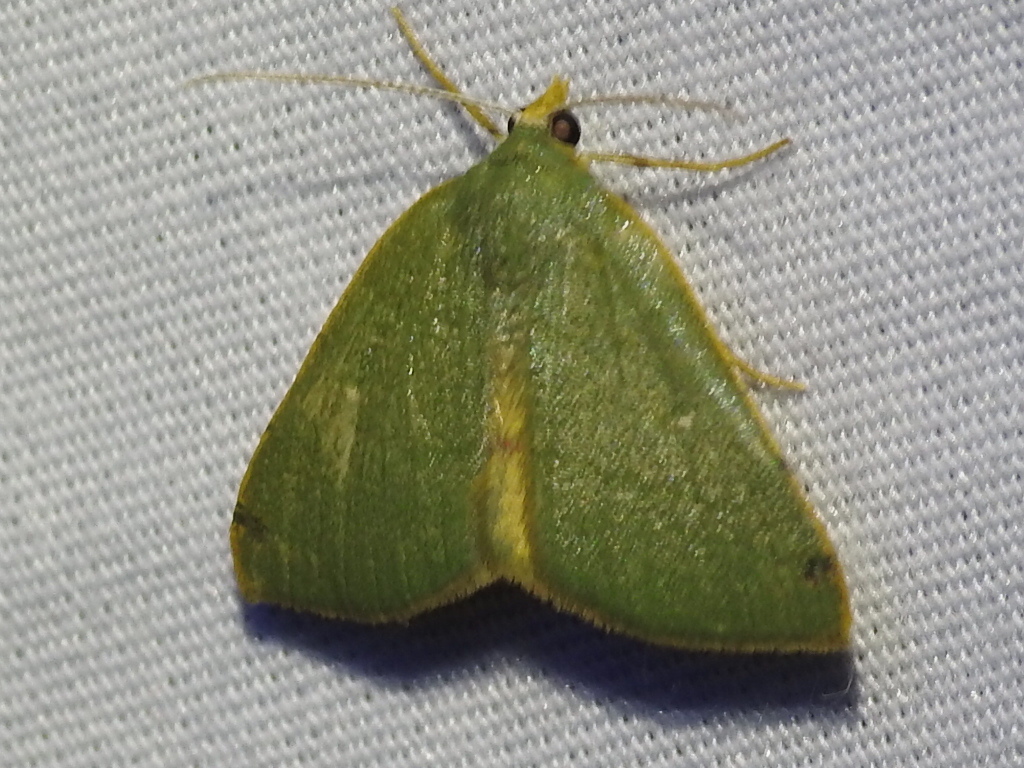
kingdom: Animalia
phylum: Arthropoda
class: Insecta
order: Lepidoptera
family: Geometridae
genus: Chloraspilates
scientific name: Chloraspilates bicoloraria
